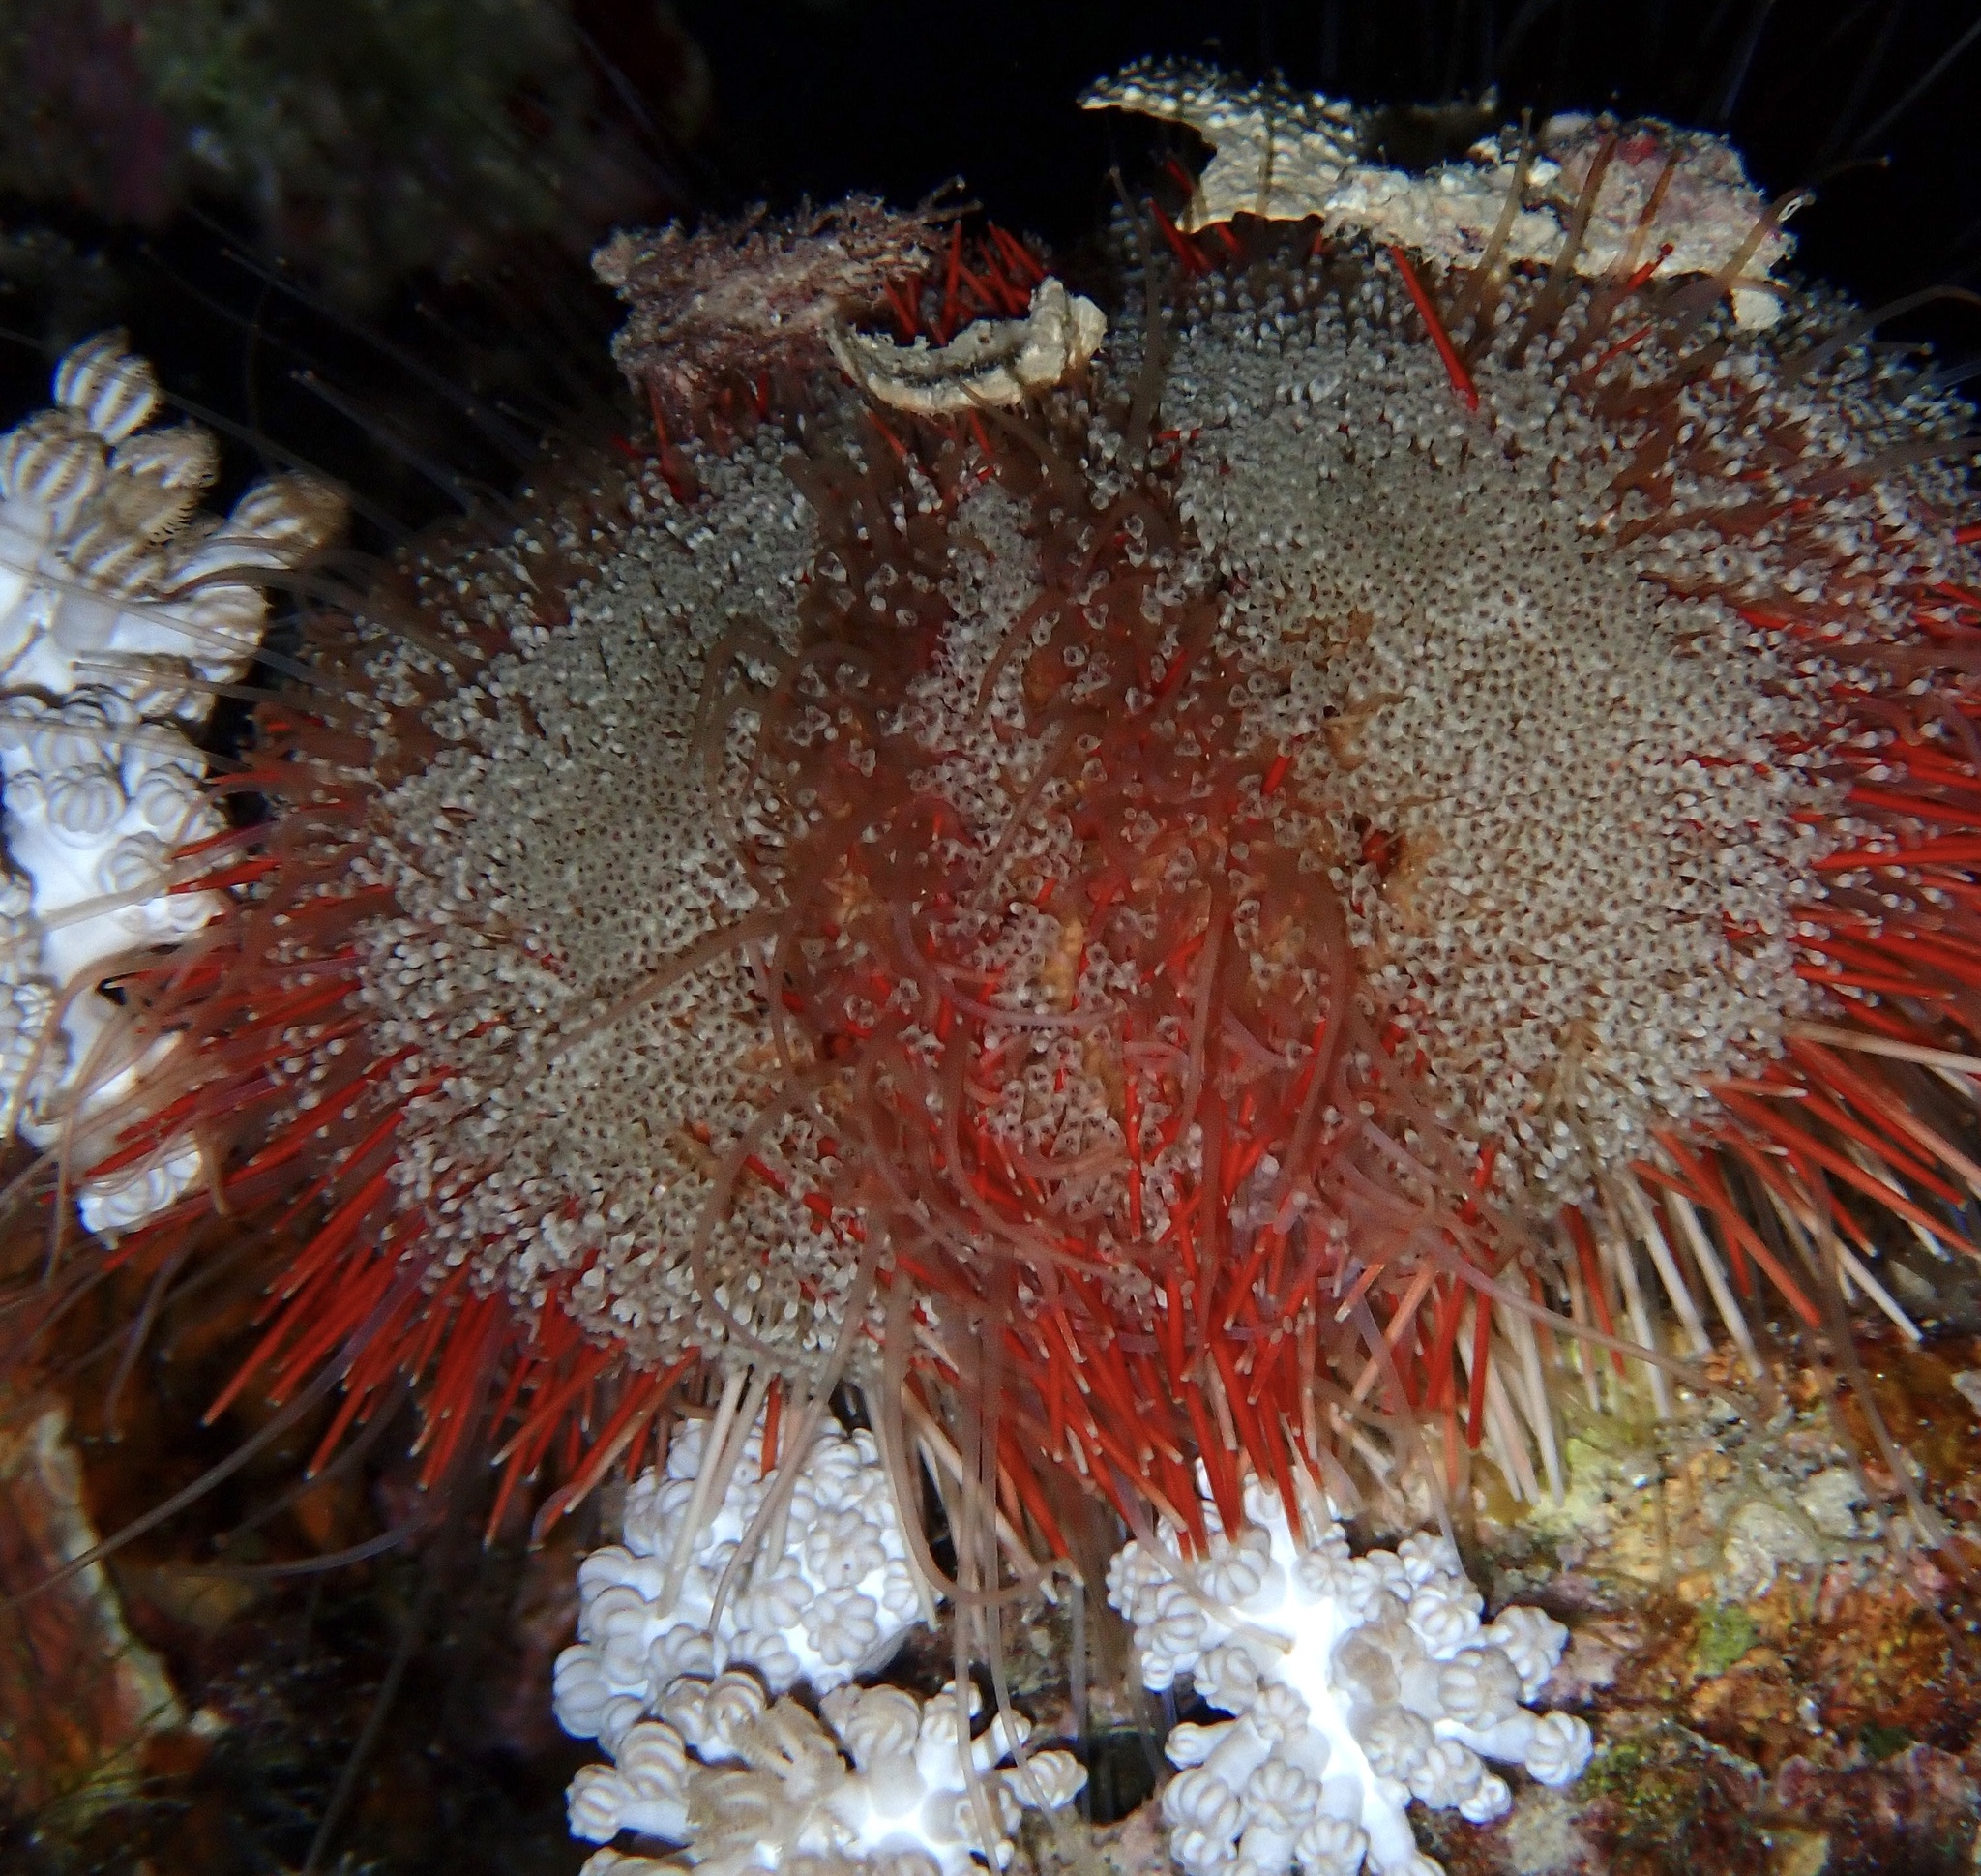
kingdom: Animalia
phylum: Echinodermata
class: Echinoidea
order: Camarodonta
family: Toxopneustidae
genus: Tripneustes
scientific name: Tripneustes gratilla
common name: Bischofsmützenseeigel
